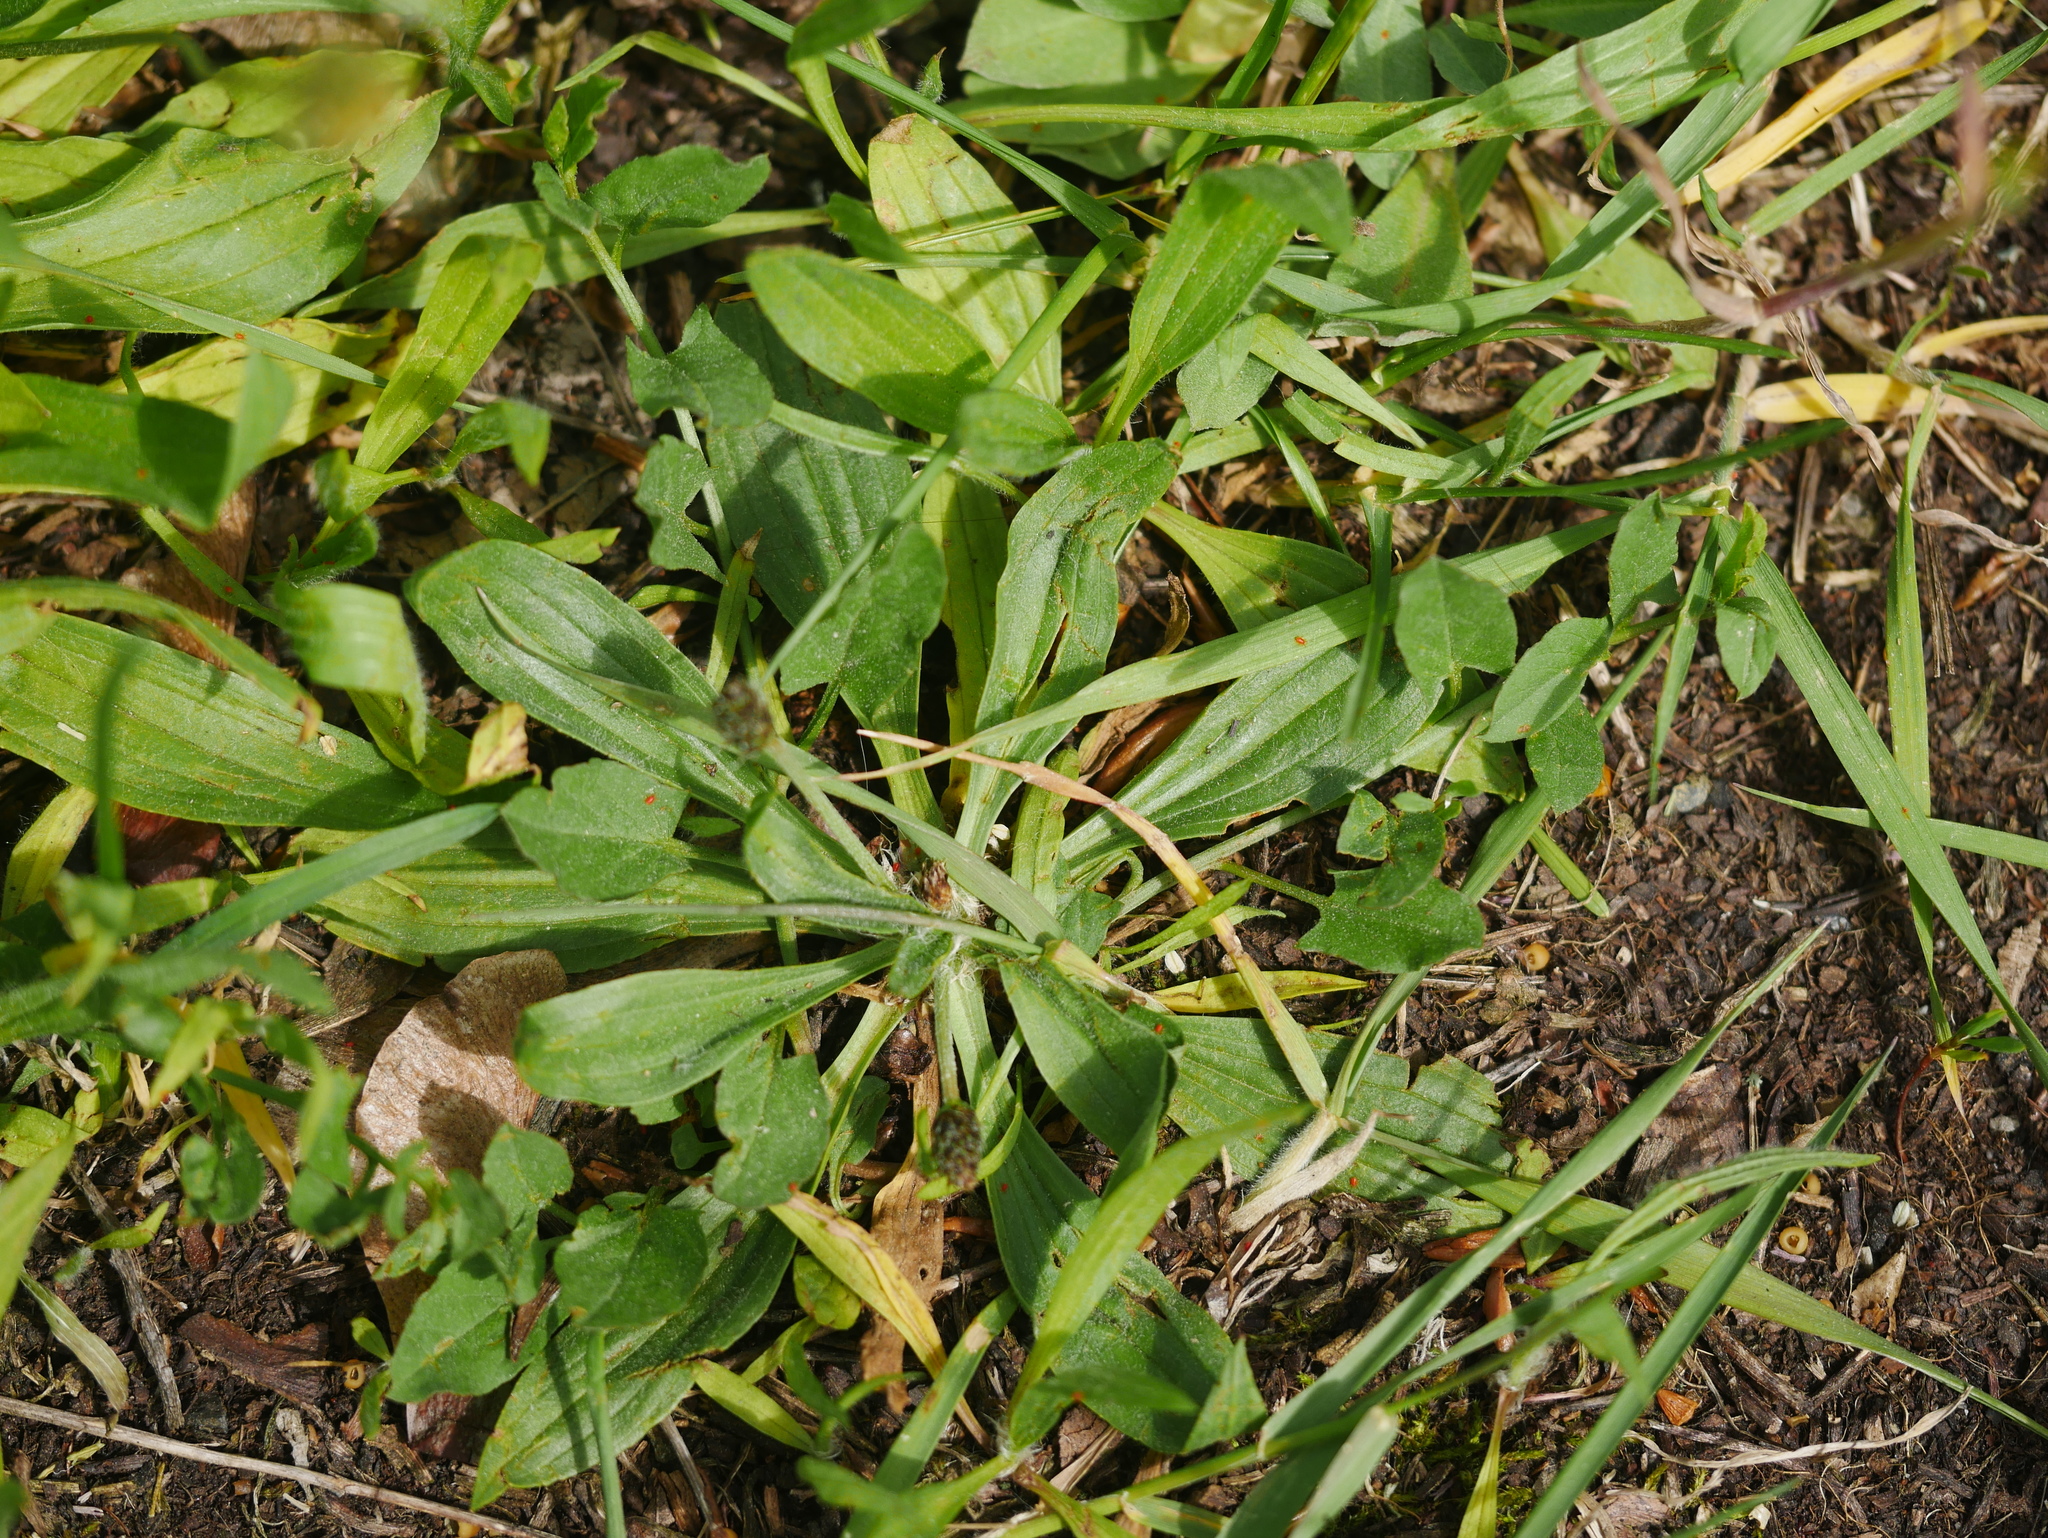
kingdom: Plantae
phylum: Tracheophyta
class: Magnoliopsida
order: Lamiales
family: Plantaginaceae
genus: Plantago
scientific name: Plantago lanceolata
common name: Ribwort plantain
